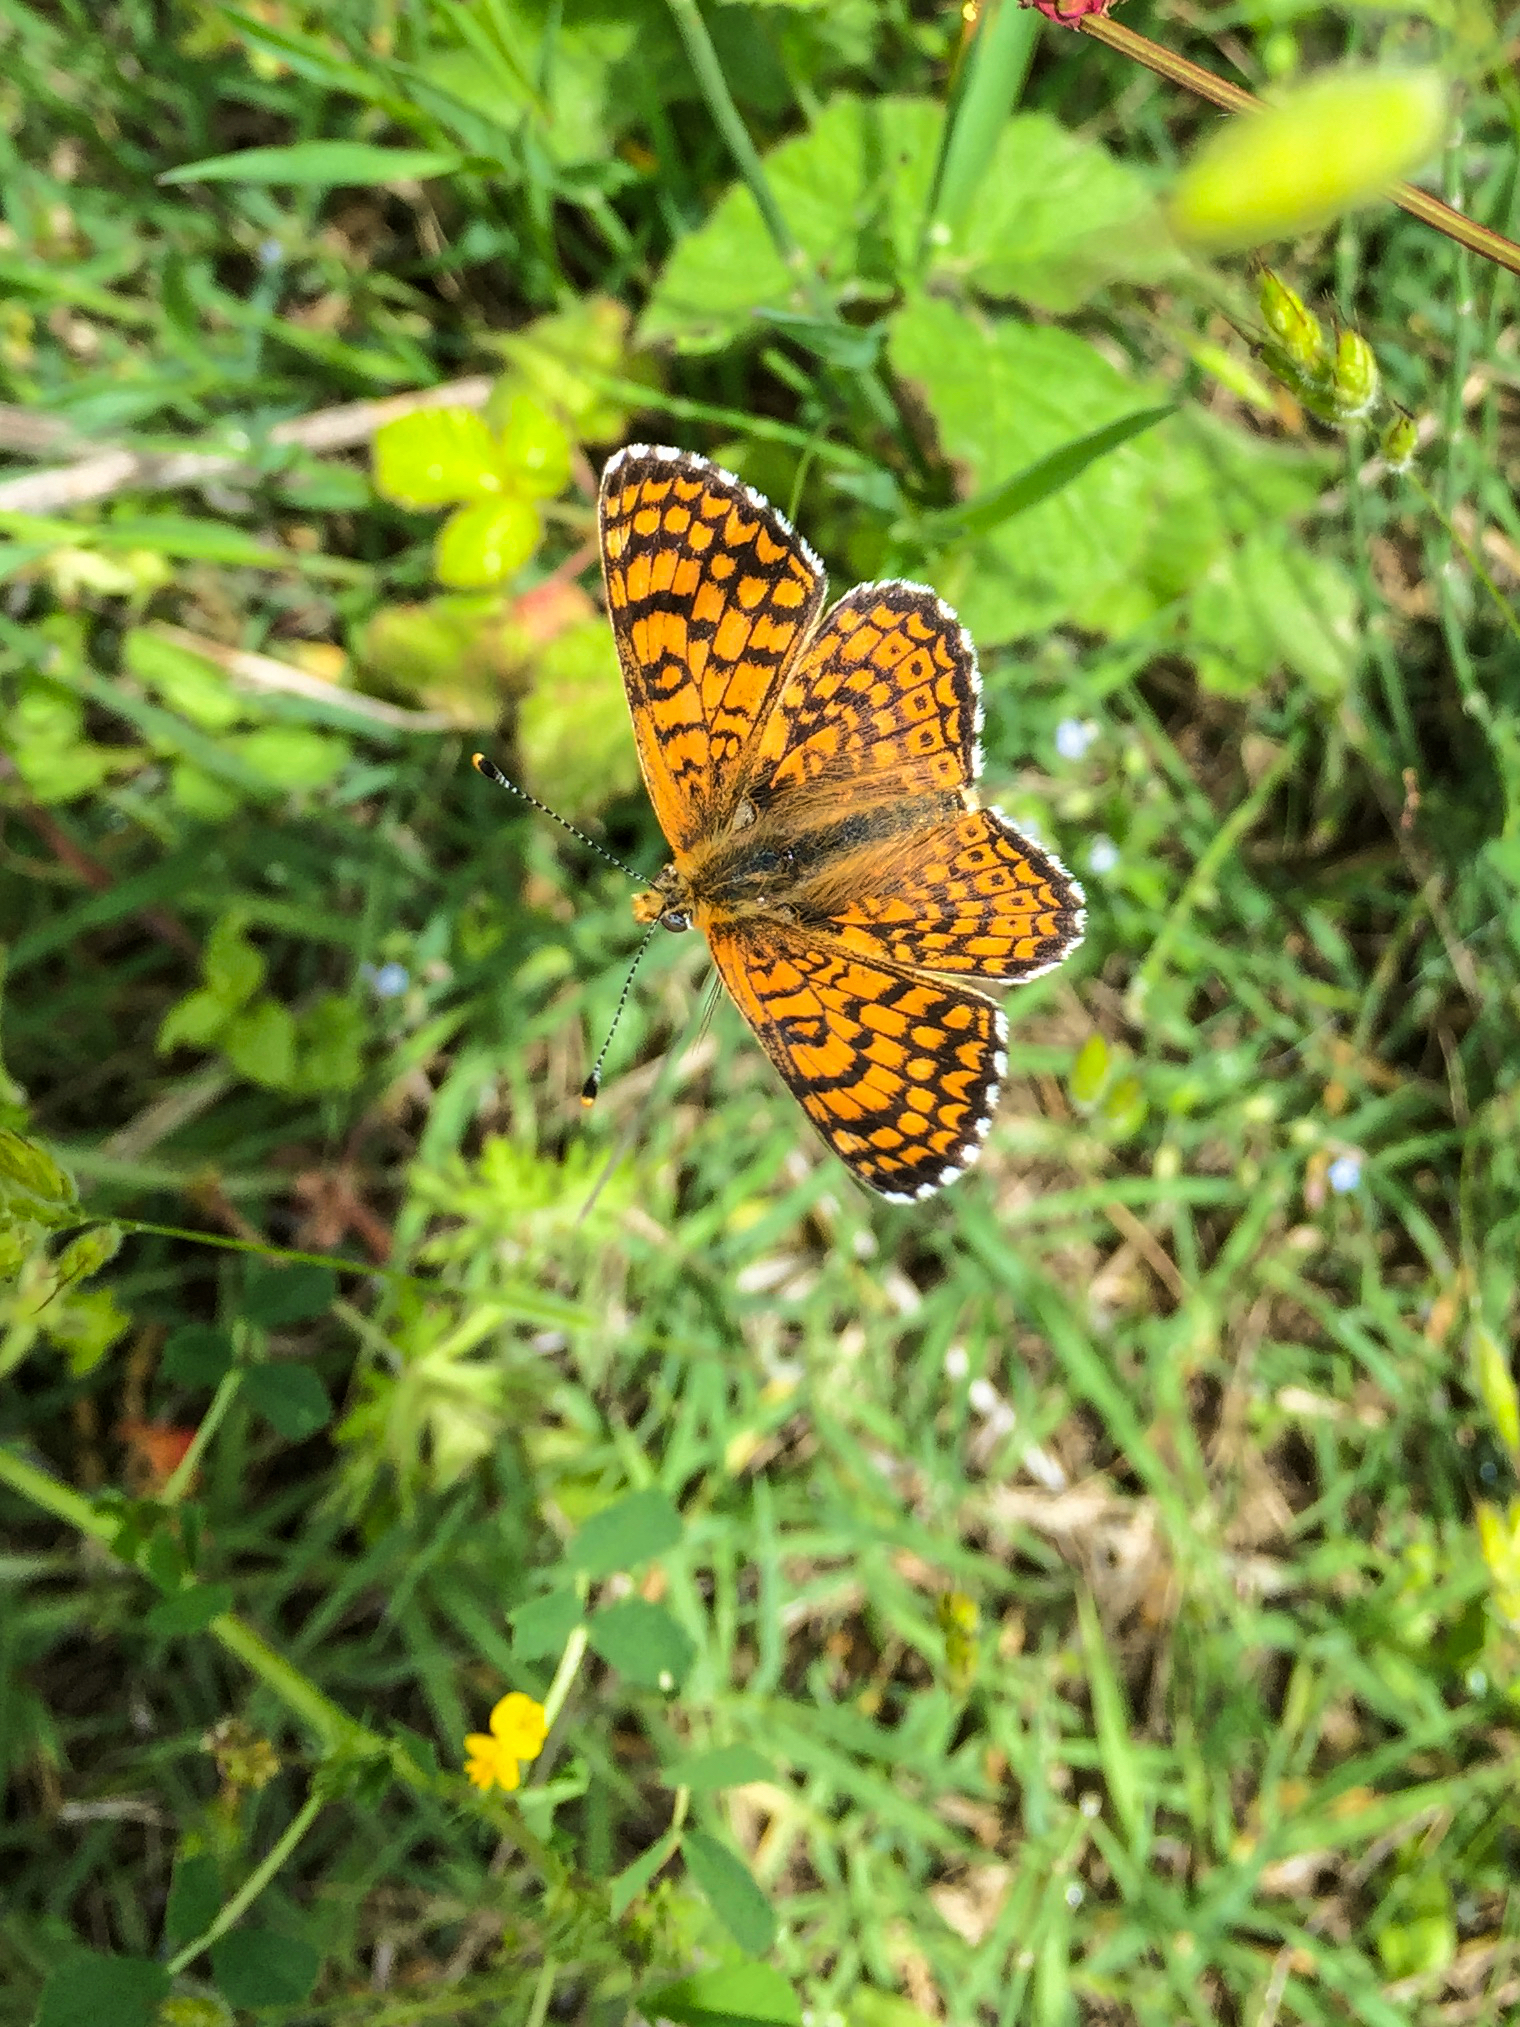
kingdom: Animalia
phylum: Arthropoda
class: Insecta
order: Lepidoptera
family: Nymphalidae
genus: Melitaea
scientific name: Melitaea cinxia
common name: Glanville fritillary
